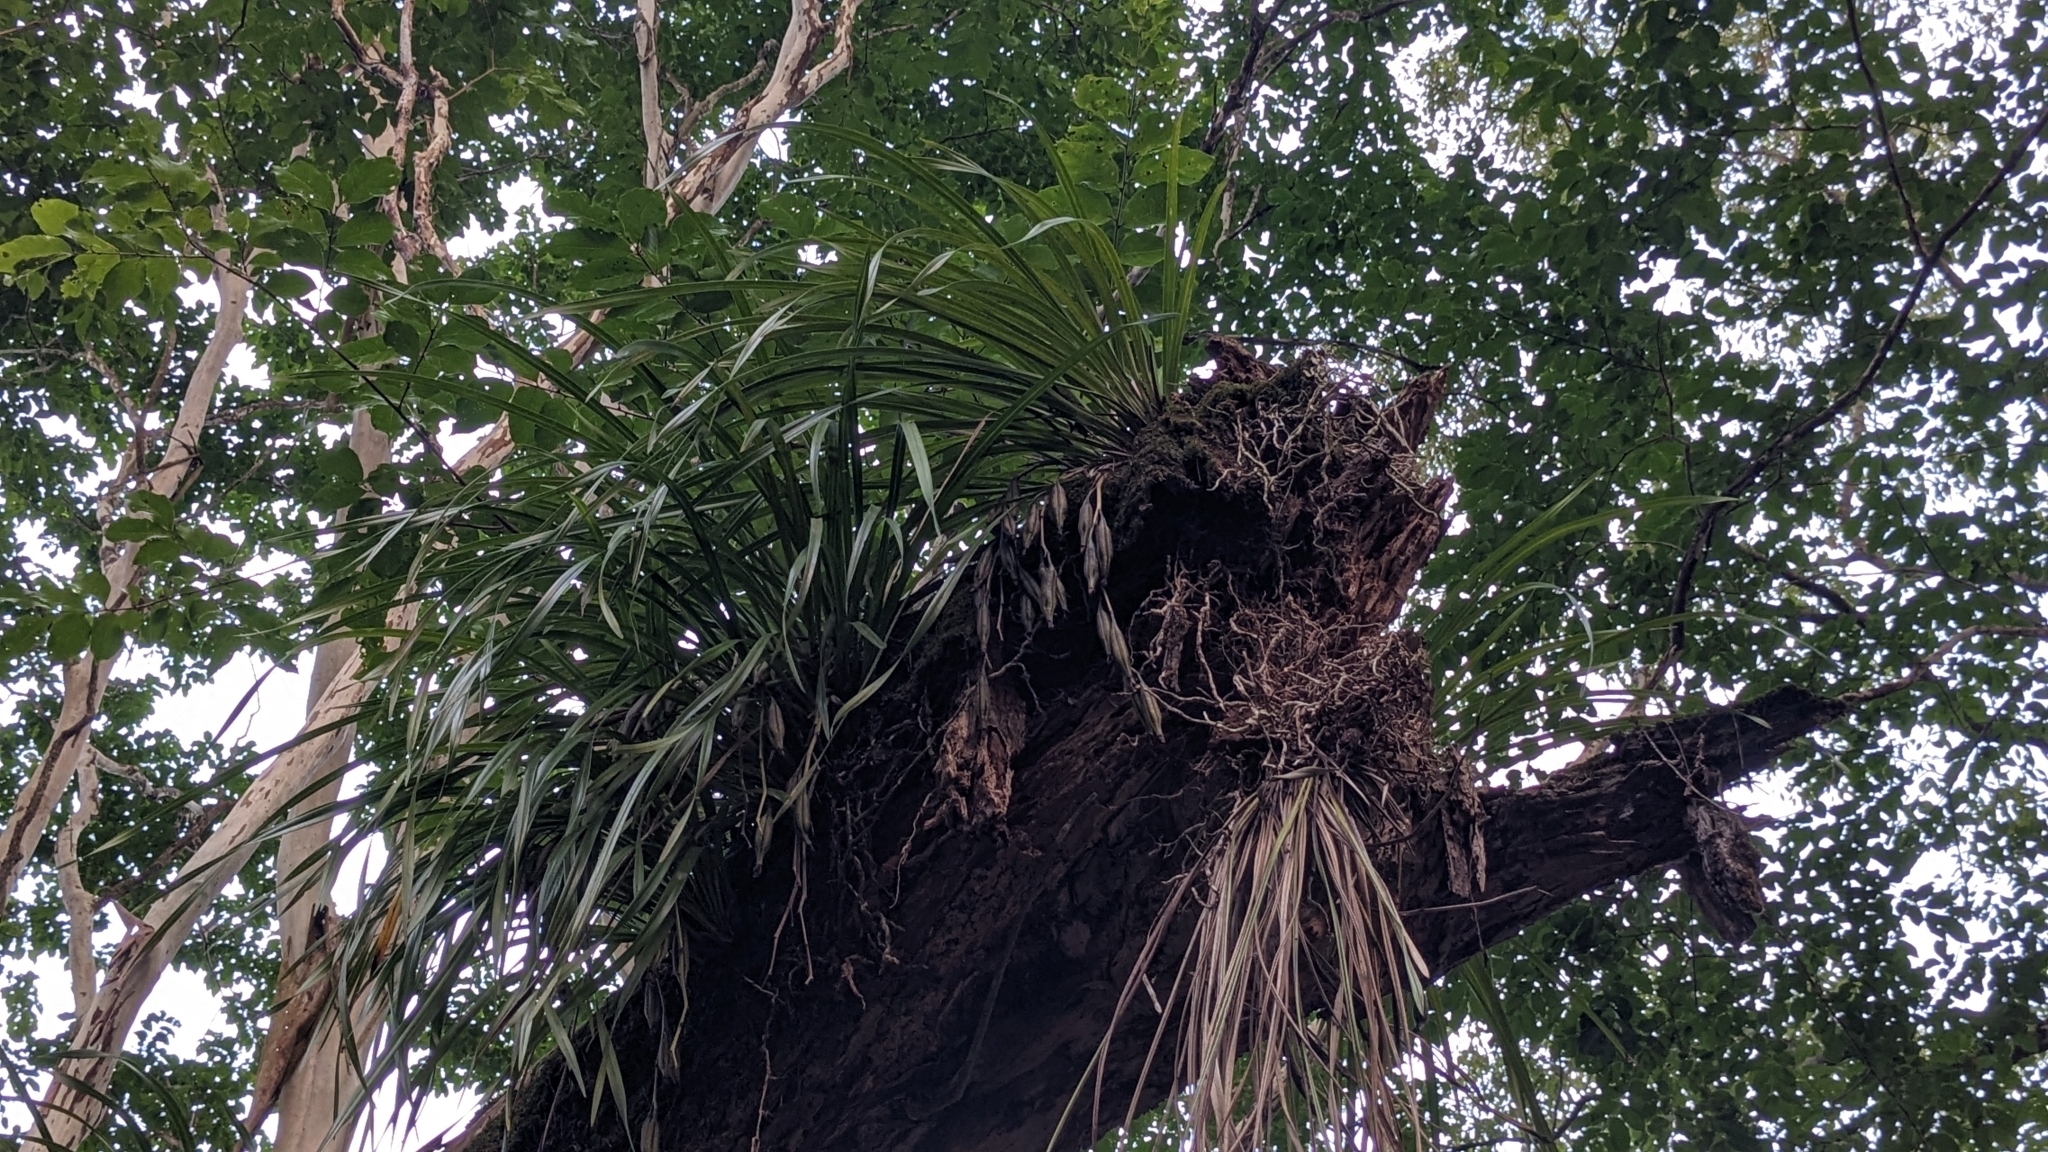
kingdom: Plantae
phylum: Tracheophyta
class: Liliopsida
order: Asparagales
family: Orchidaceae
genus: Cymbidium
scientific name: Cymbidium dayanum
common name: Orchid
